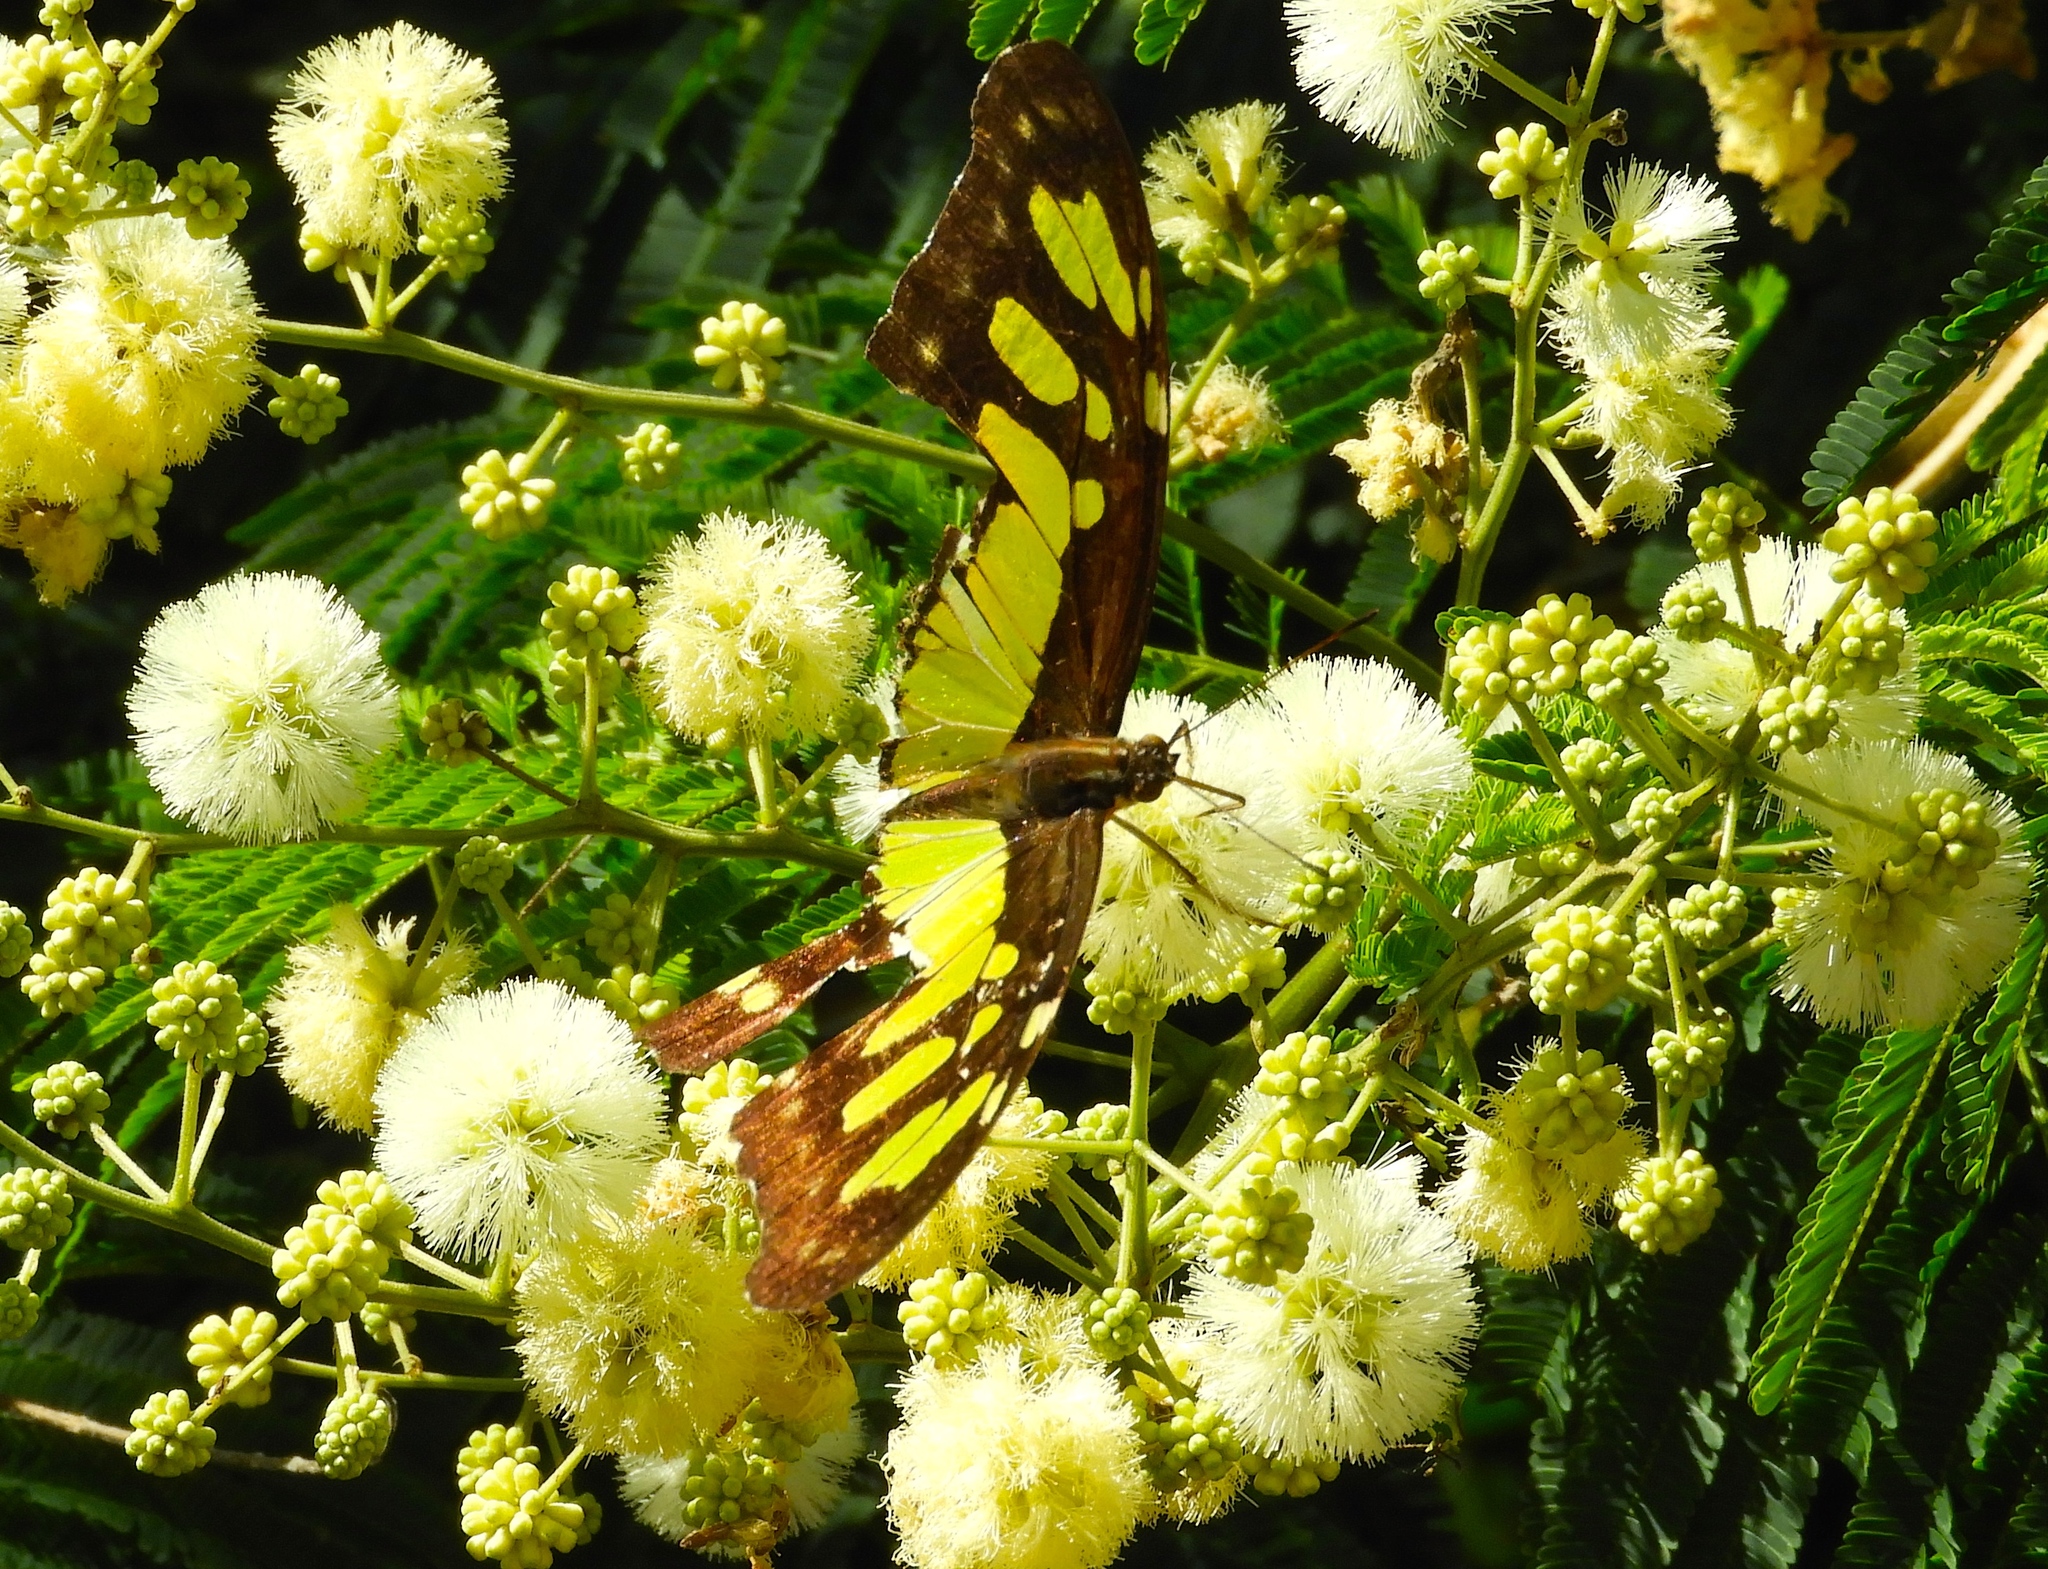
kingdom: Animalia
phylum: Arthropoda
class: Insecta
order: Lepidoptera
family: Nymphalidae
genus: Siproeta
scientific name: Siproeta stelenes
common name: Malachite
